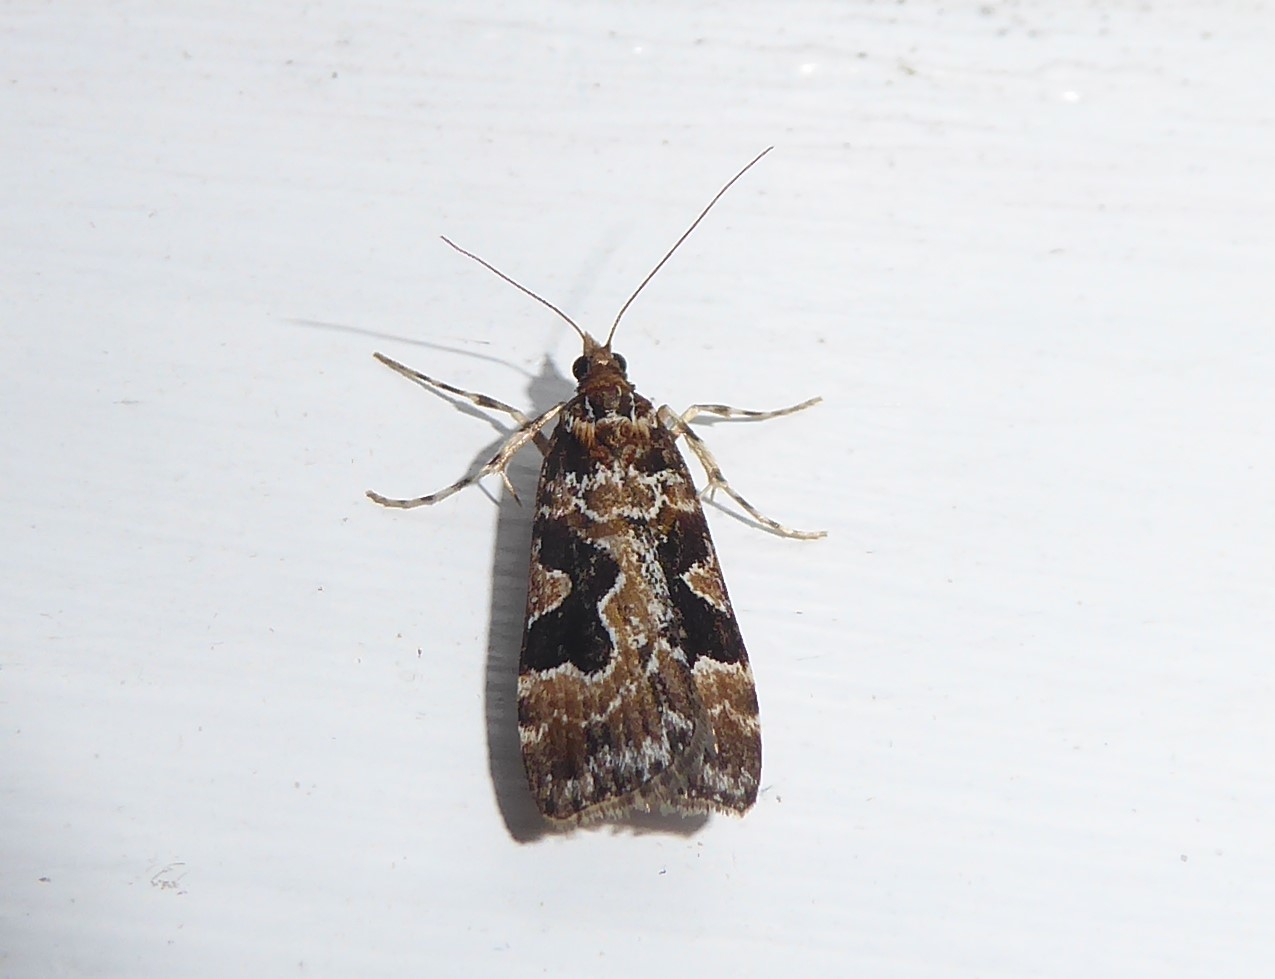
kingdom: Animalia
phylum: Arthropoda
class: Insecta
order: Lepidoptera
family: Crambidae
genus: Scoparia
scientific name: Scoparia ustimacula
